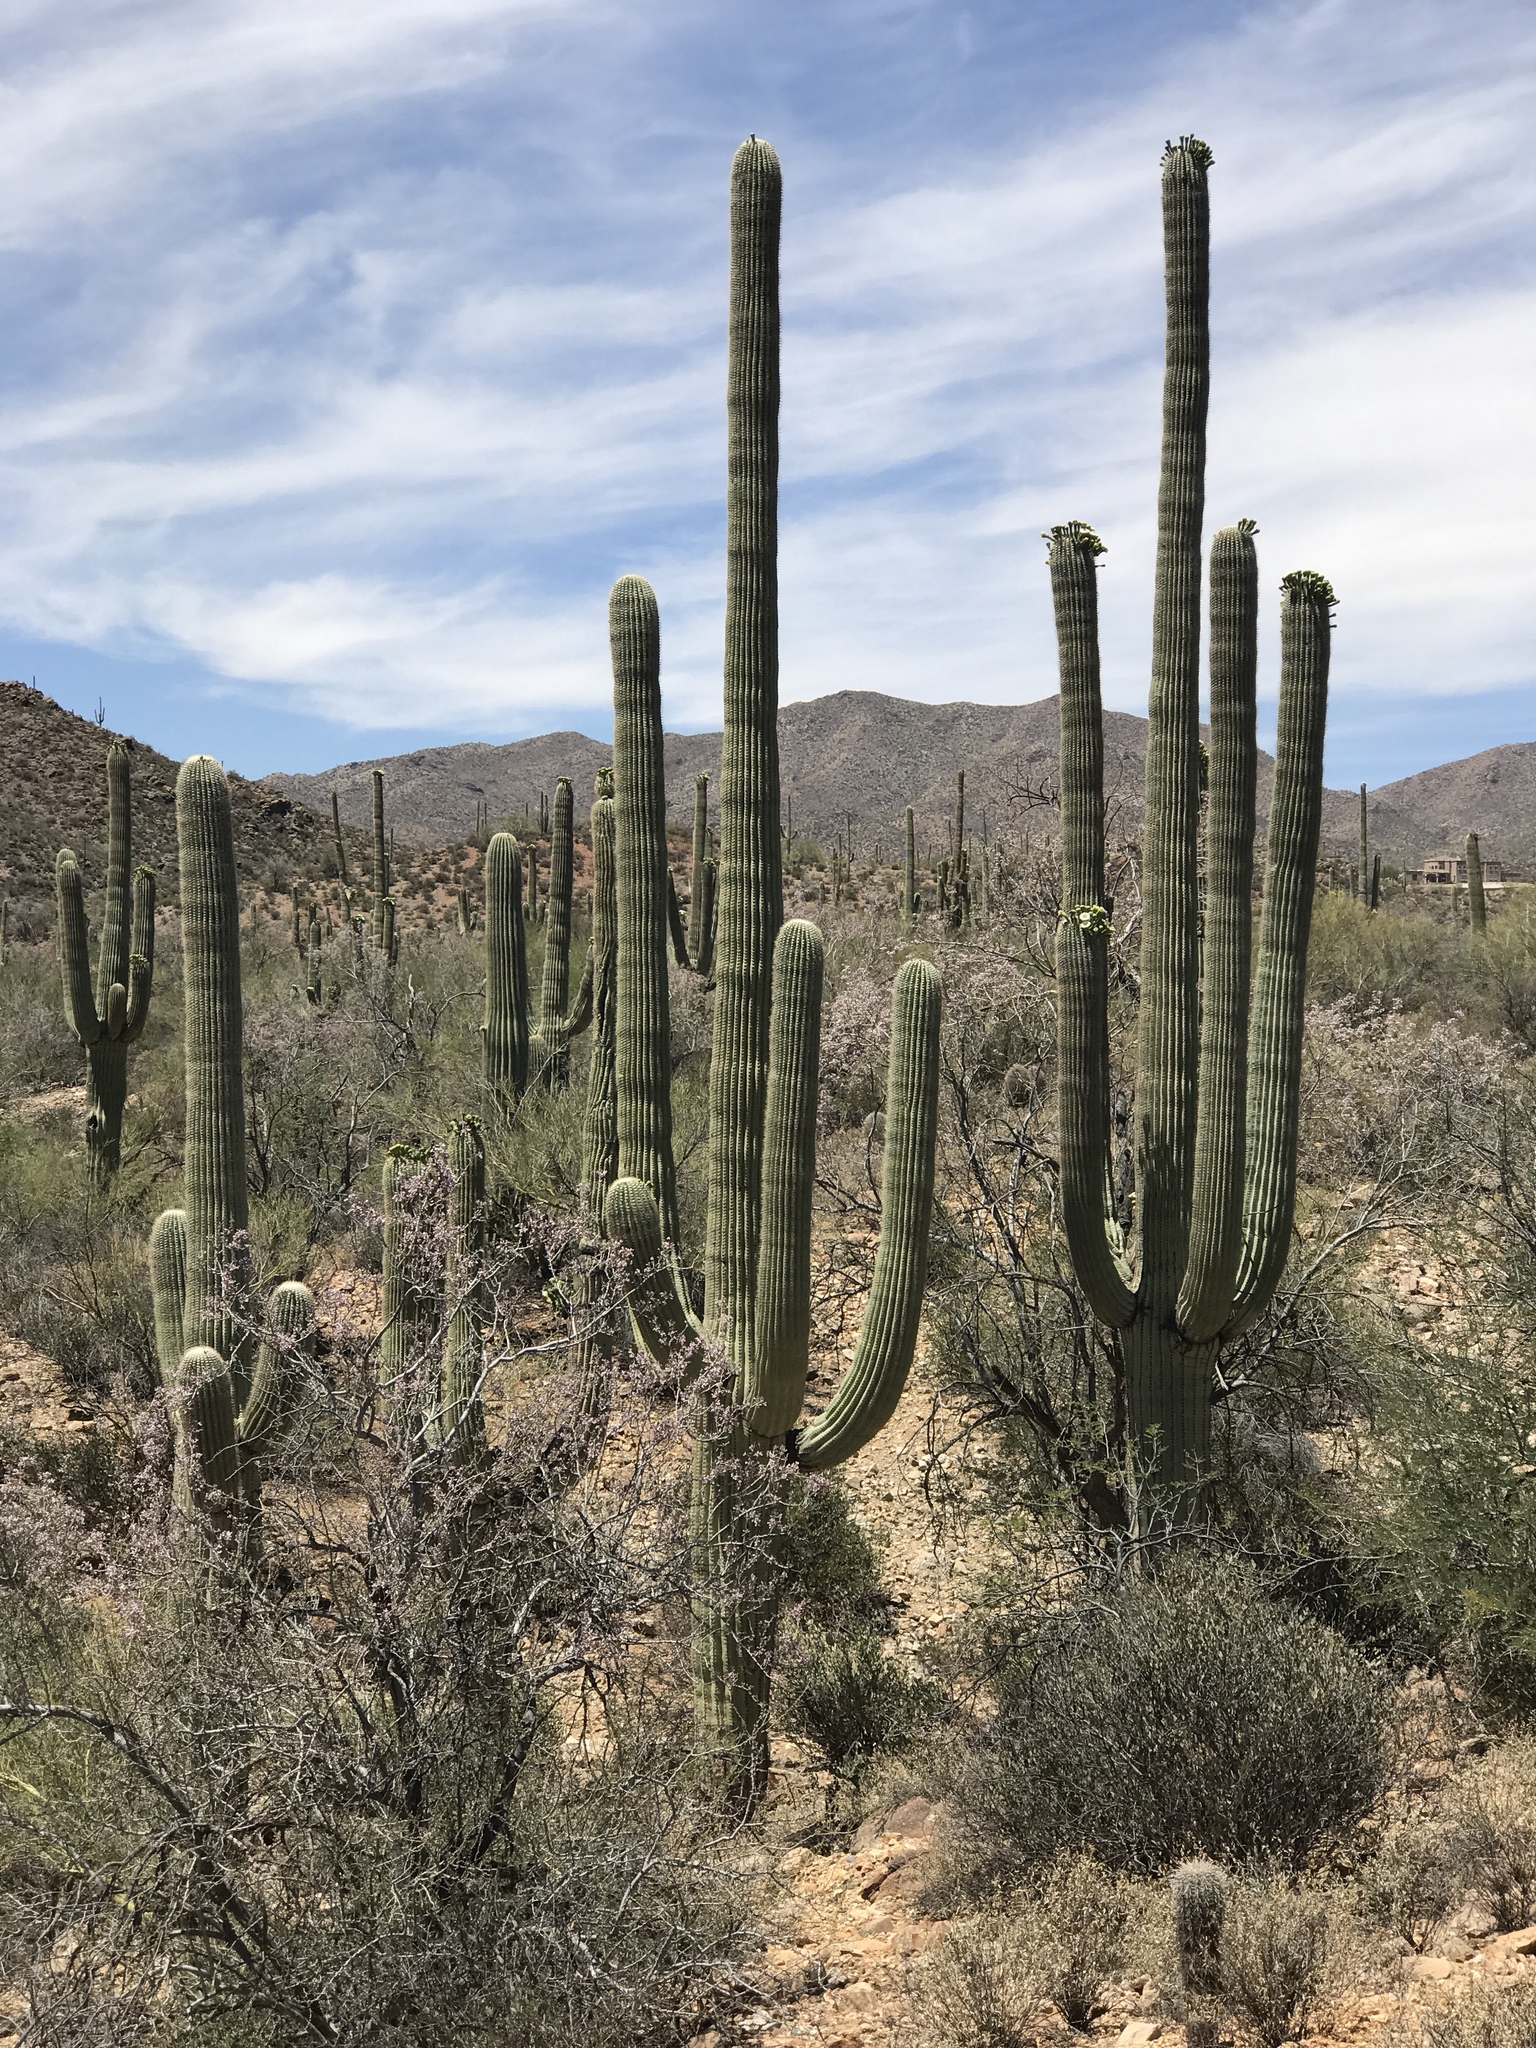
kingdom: Plantae
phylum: Tracheophyta
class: Magnoliopsida
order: Caryophyllales
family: Cactaceae
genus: Carnegiea
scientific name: Carnegiea gigantea
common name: Saguaro
